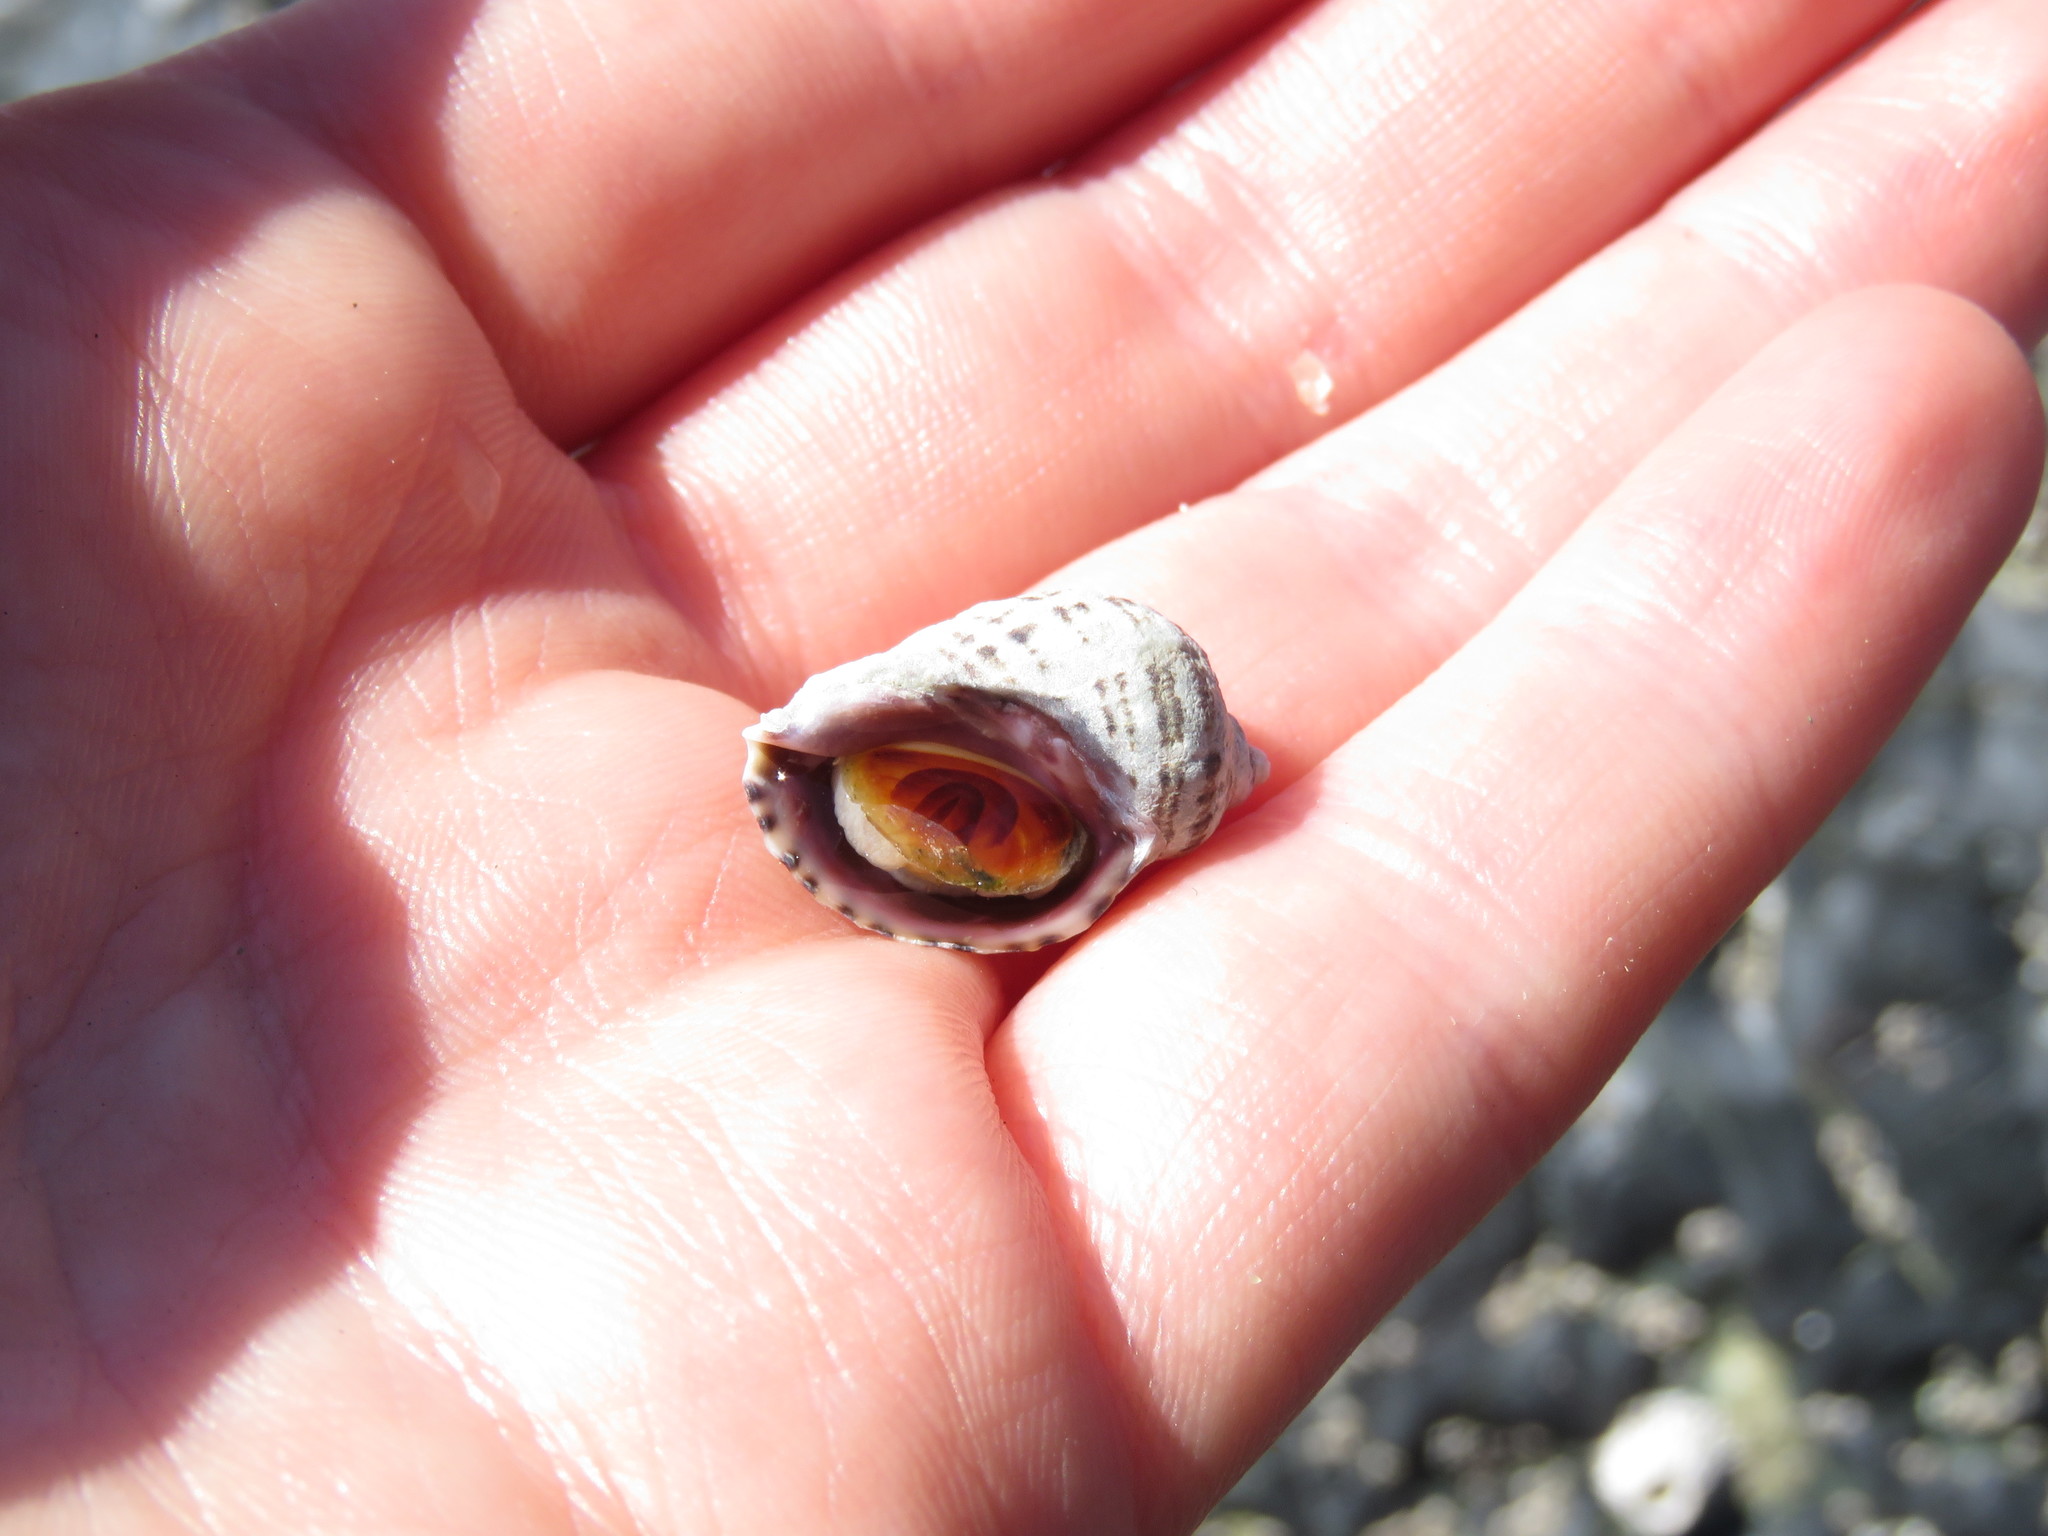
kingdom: Animalia
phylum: Mollusca
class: Gastropoda
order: Neogastropoda
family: Muricidae
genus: Nucella
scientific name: Nucella ostrina
